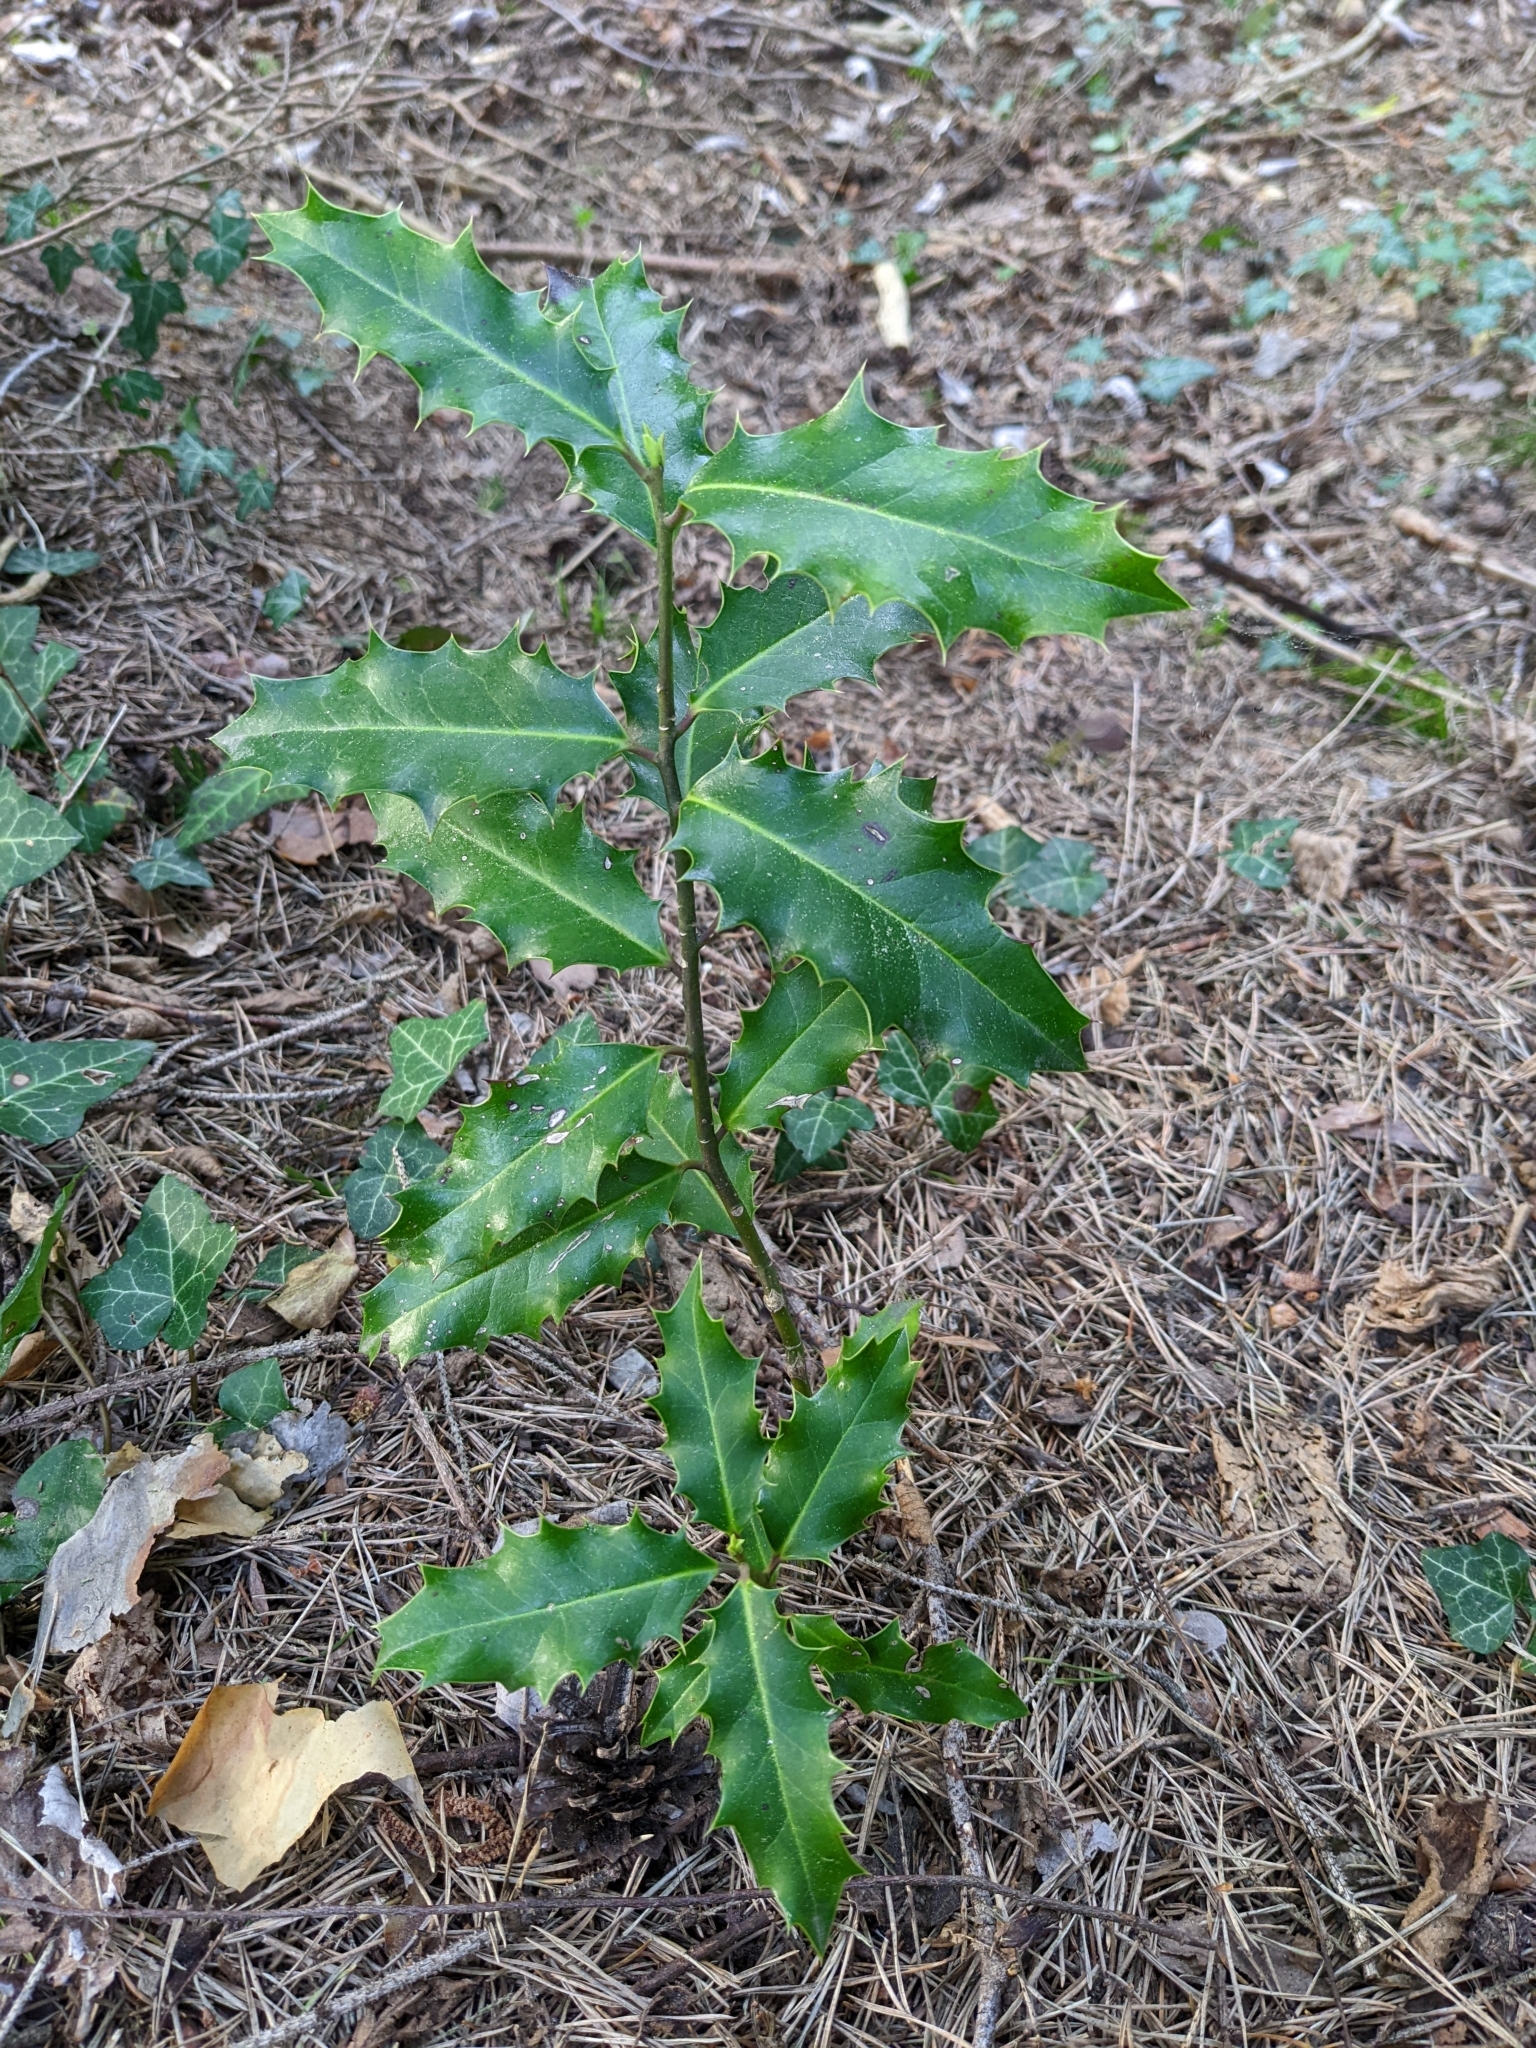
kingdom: Plantae
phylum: Tracheophyta
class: Magnoliopsida
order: Aquifoliales
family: Aquifoliaceae
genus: Ilex
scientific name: Ilex aquifolium
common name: English holly
